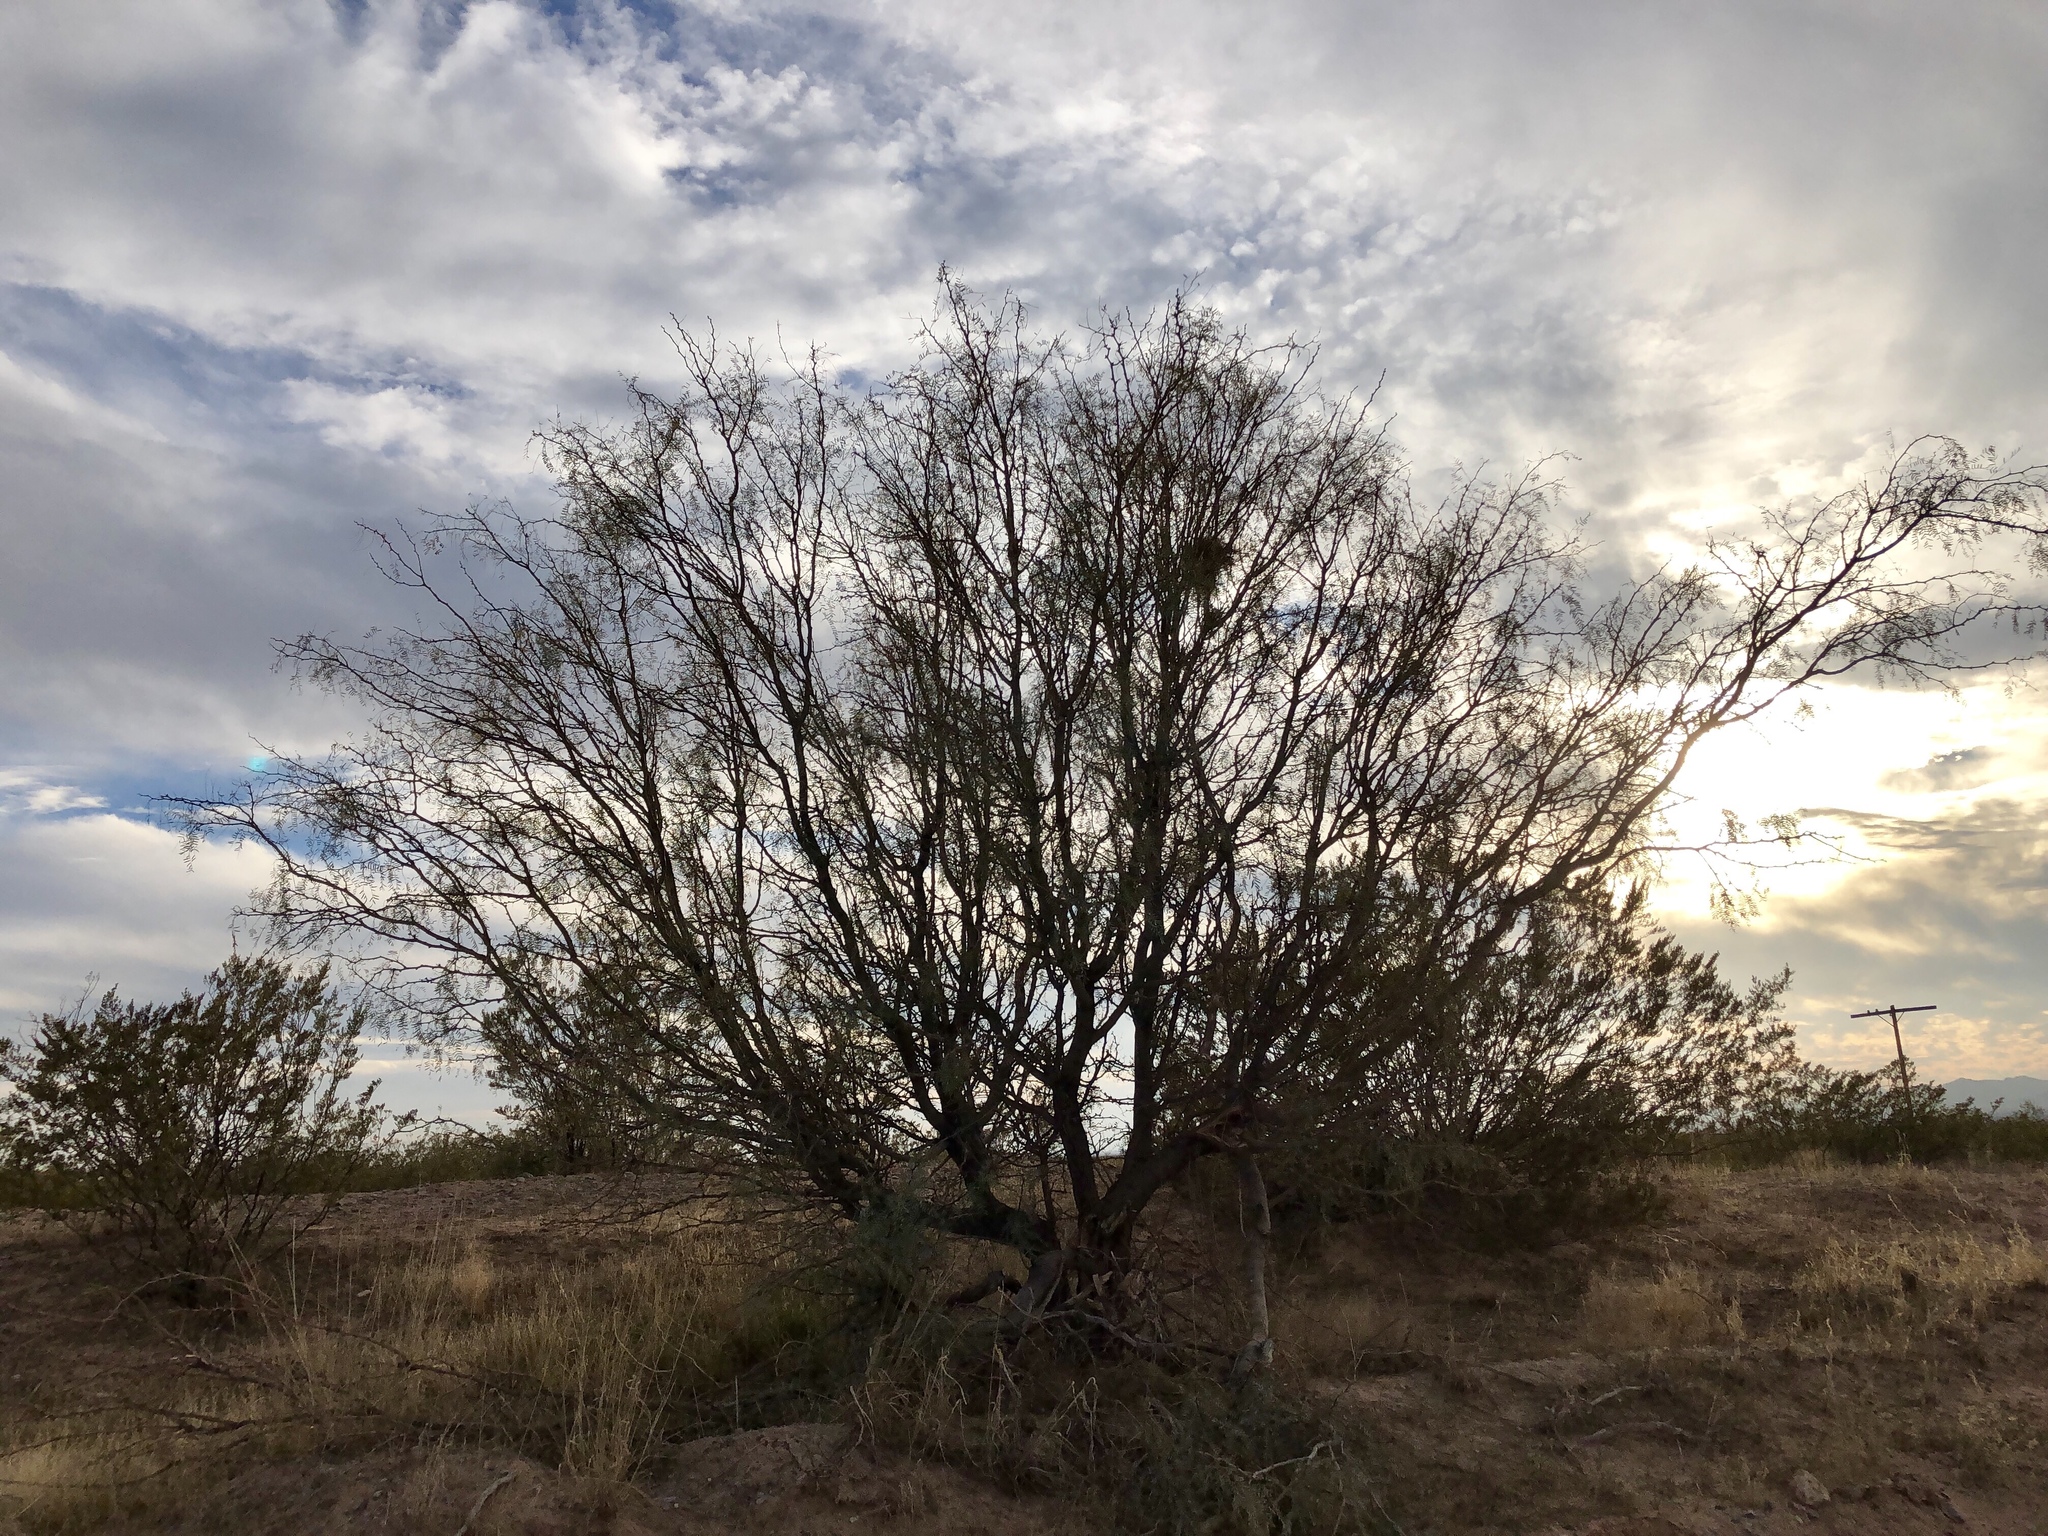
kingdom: Plantae
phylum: Tracheophyta
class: Magnoliopsida
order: Fabales
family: Fabaceae
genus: Prosopis
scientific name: Prosopis glandulosa
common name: Honey mesquite
